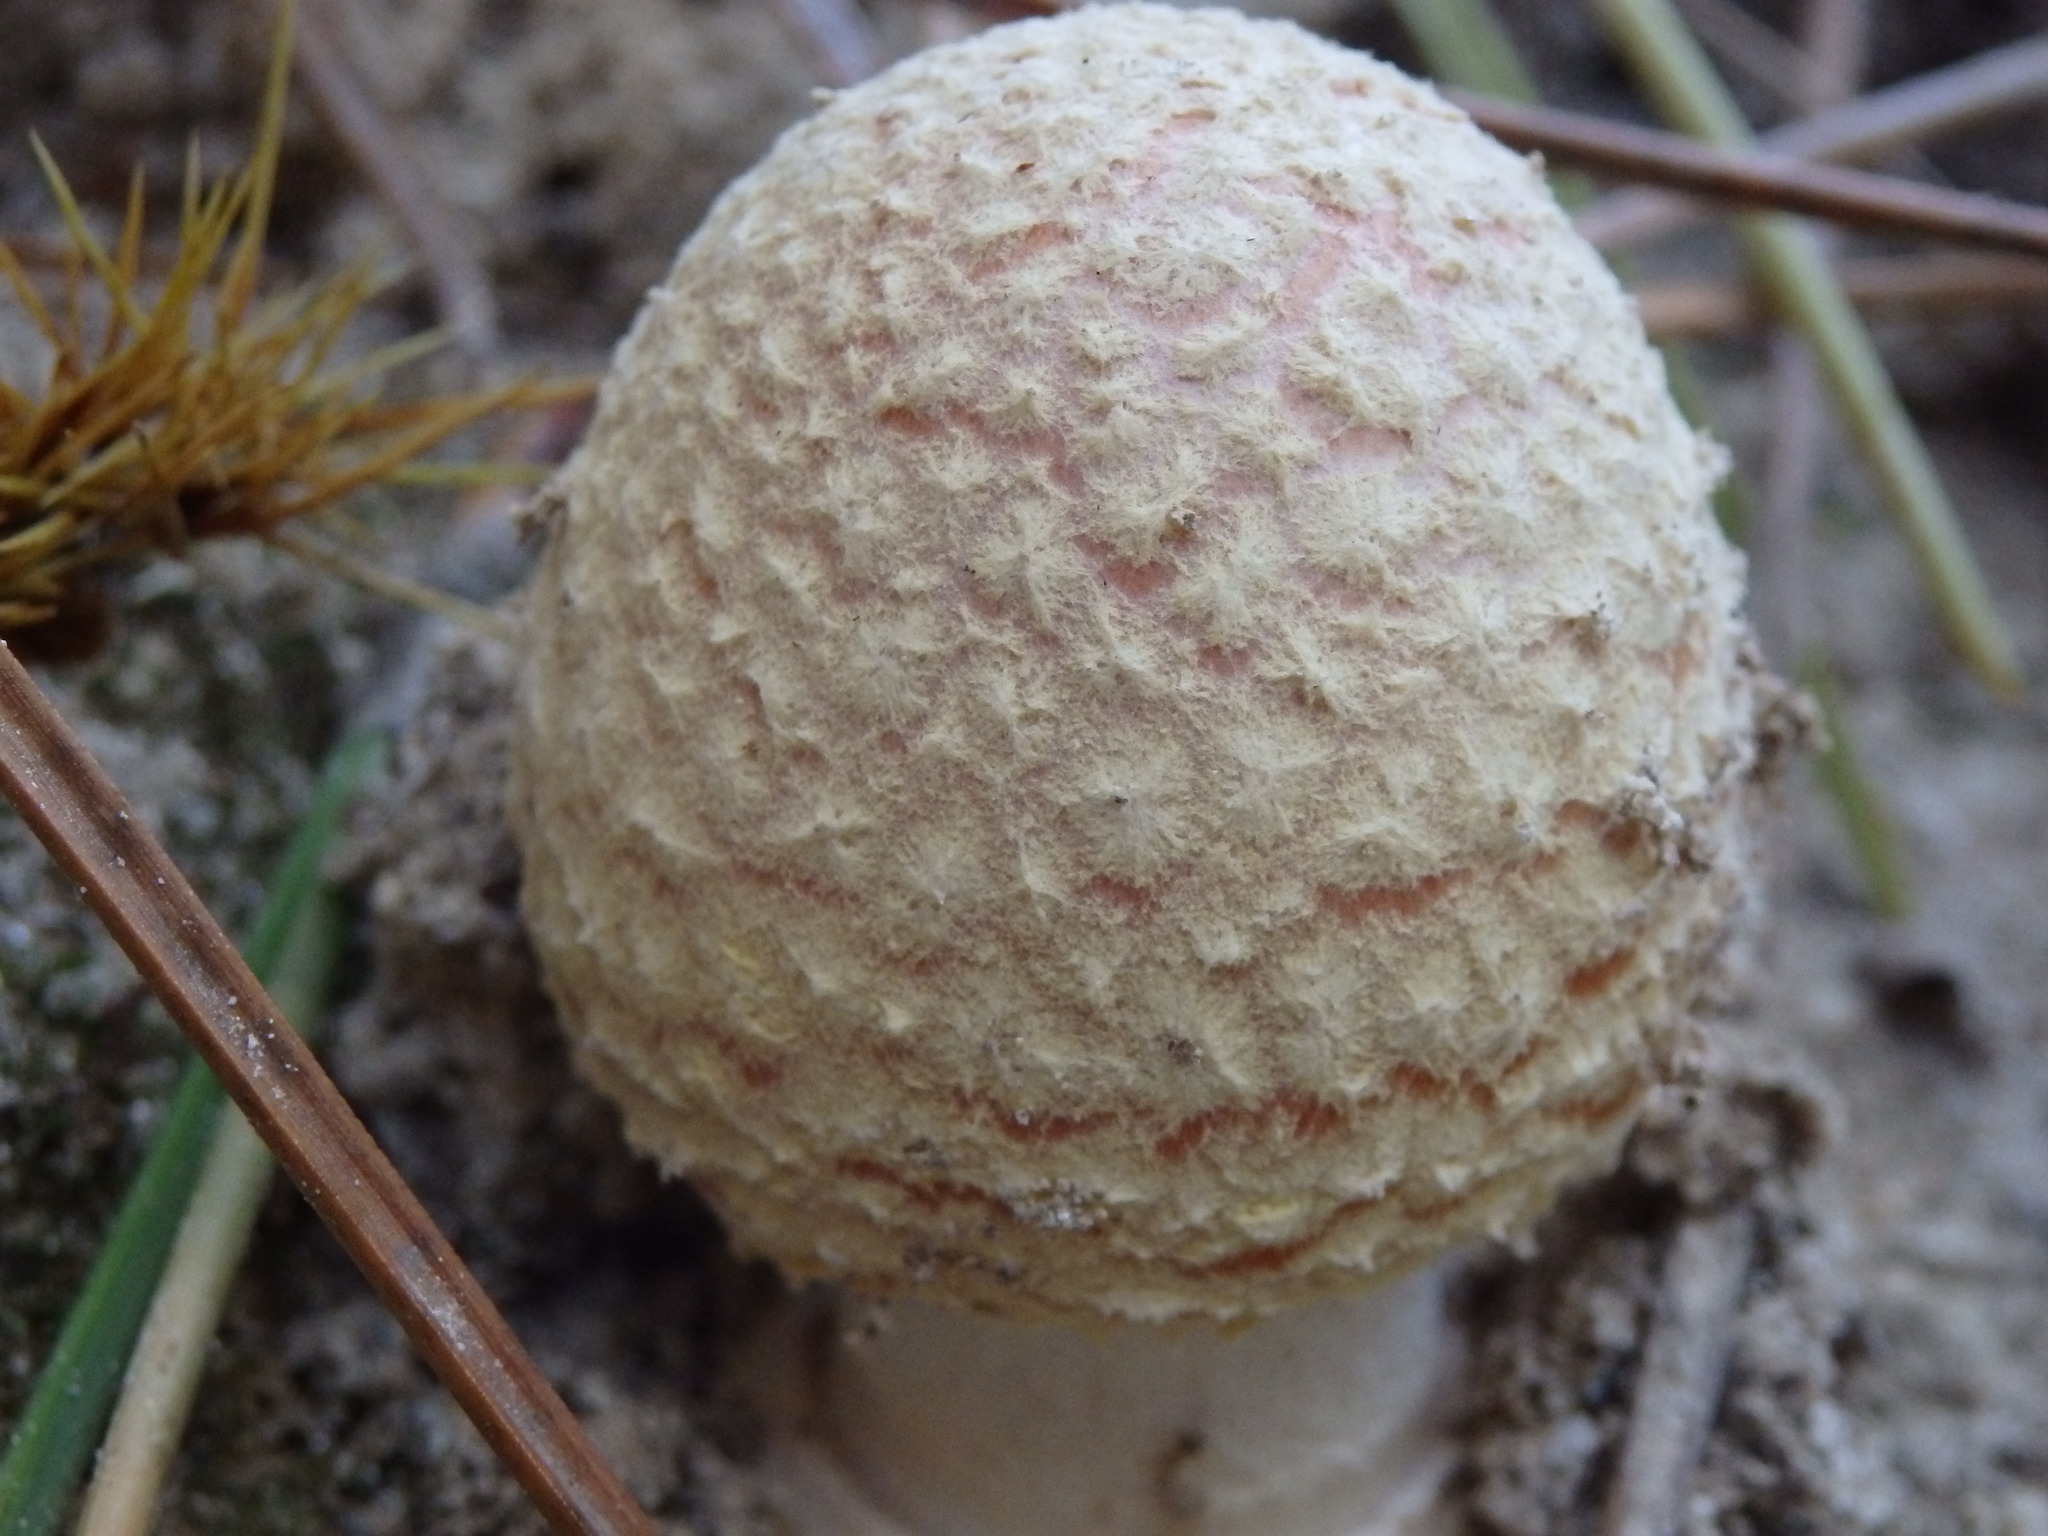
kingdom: Fungi
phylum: Basidiomycota
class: Agaricomycetes
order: Agaricales
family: Amanitaceae
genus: Amanita
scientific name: Amanita muscaria
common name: Fly agaric
